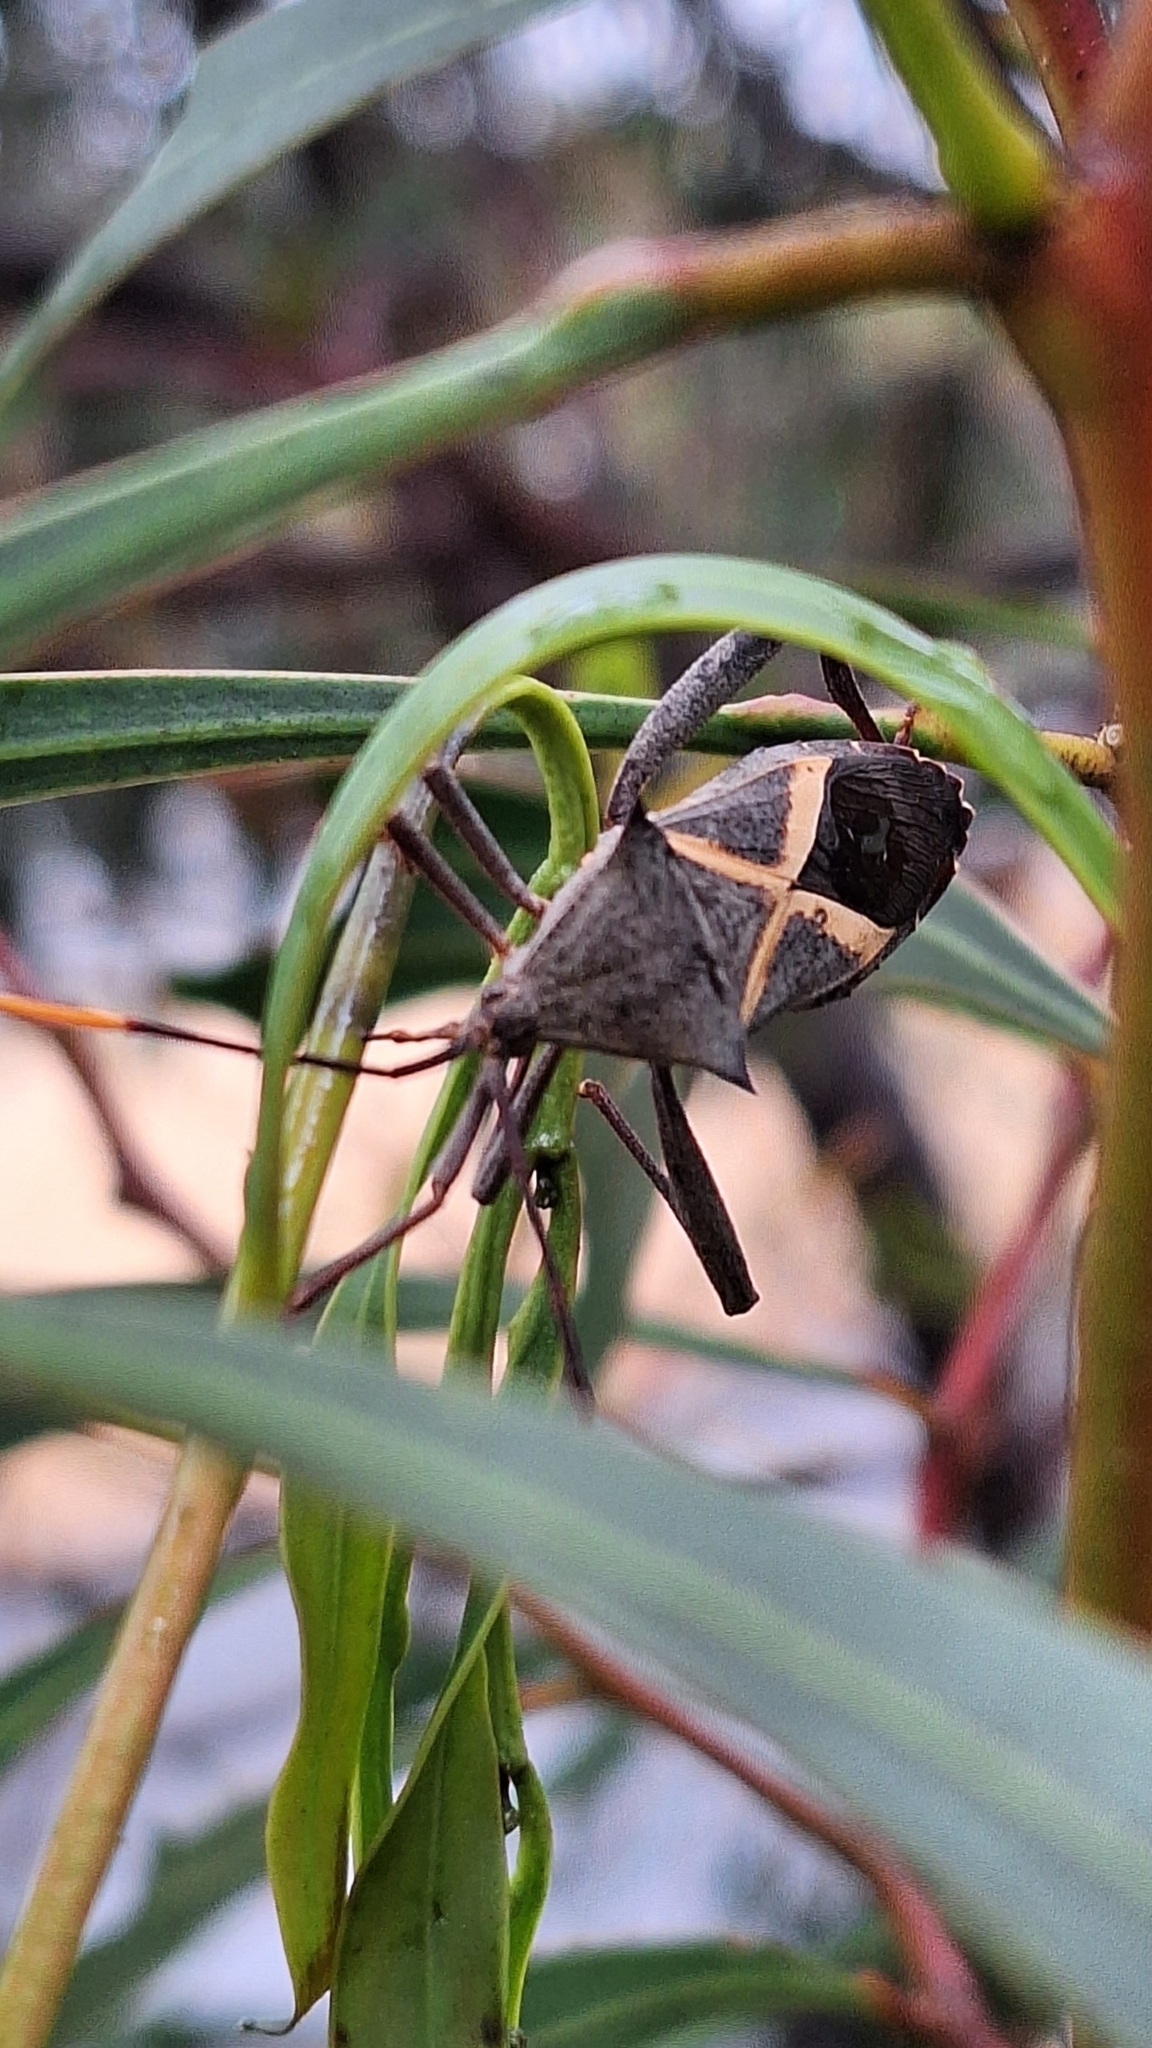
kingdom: Animalia
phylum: Arthropoda
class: Insecta
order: Hemiptera
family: Coreidae
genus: Mictis
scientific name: Mictis profana
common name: Crusader bug
